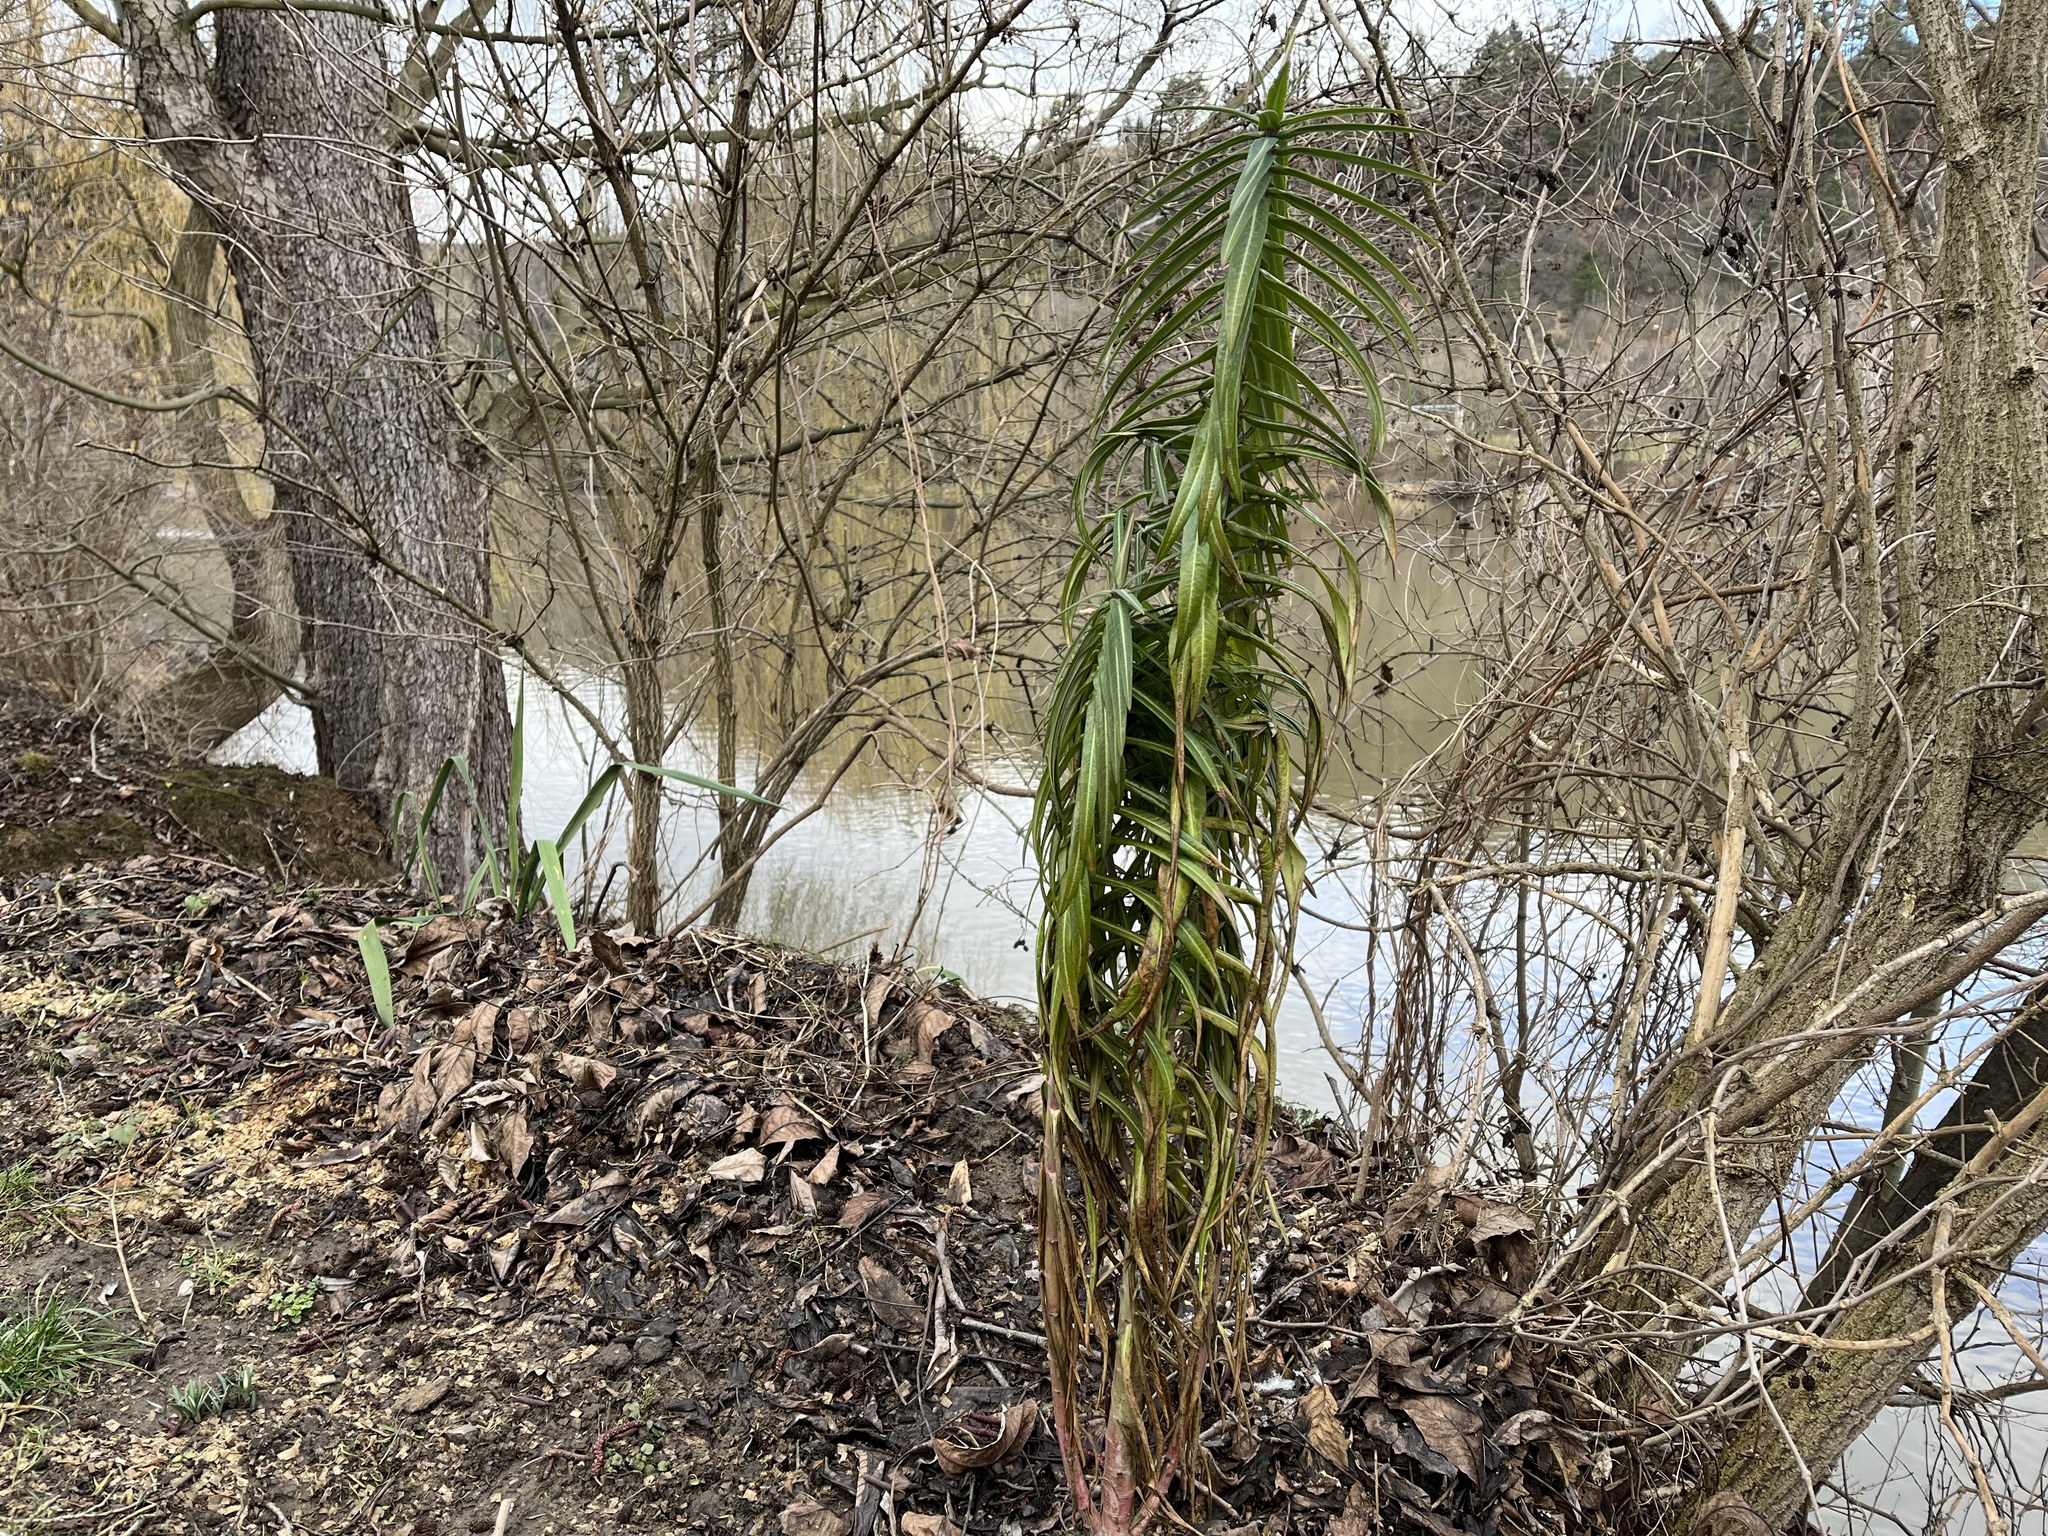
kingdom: Plantae
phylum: Tracheophyta
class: Magnoliopsida
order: Malpighiales
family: Euphorbiaceae
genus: Euphorbia
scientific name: Euphorbia lathyris
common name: Caper spurge
